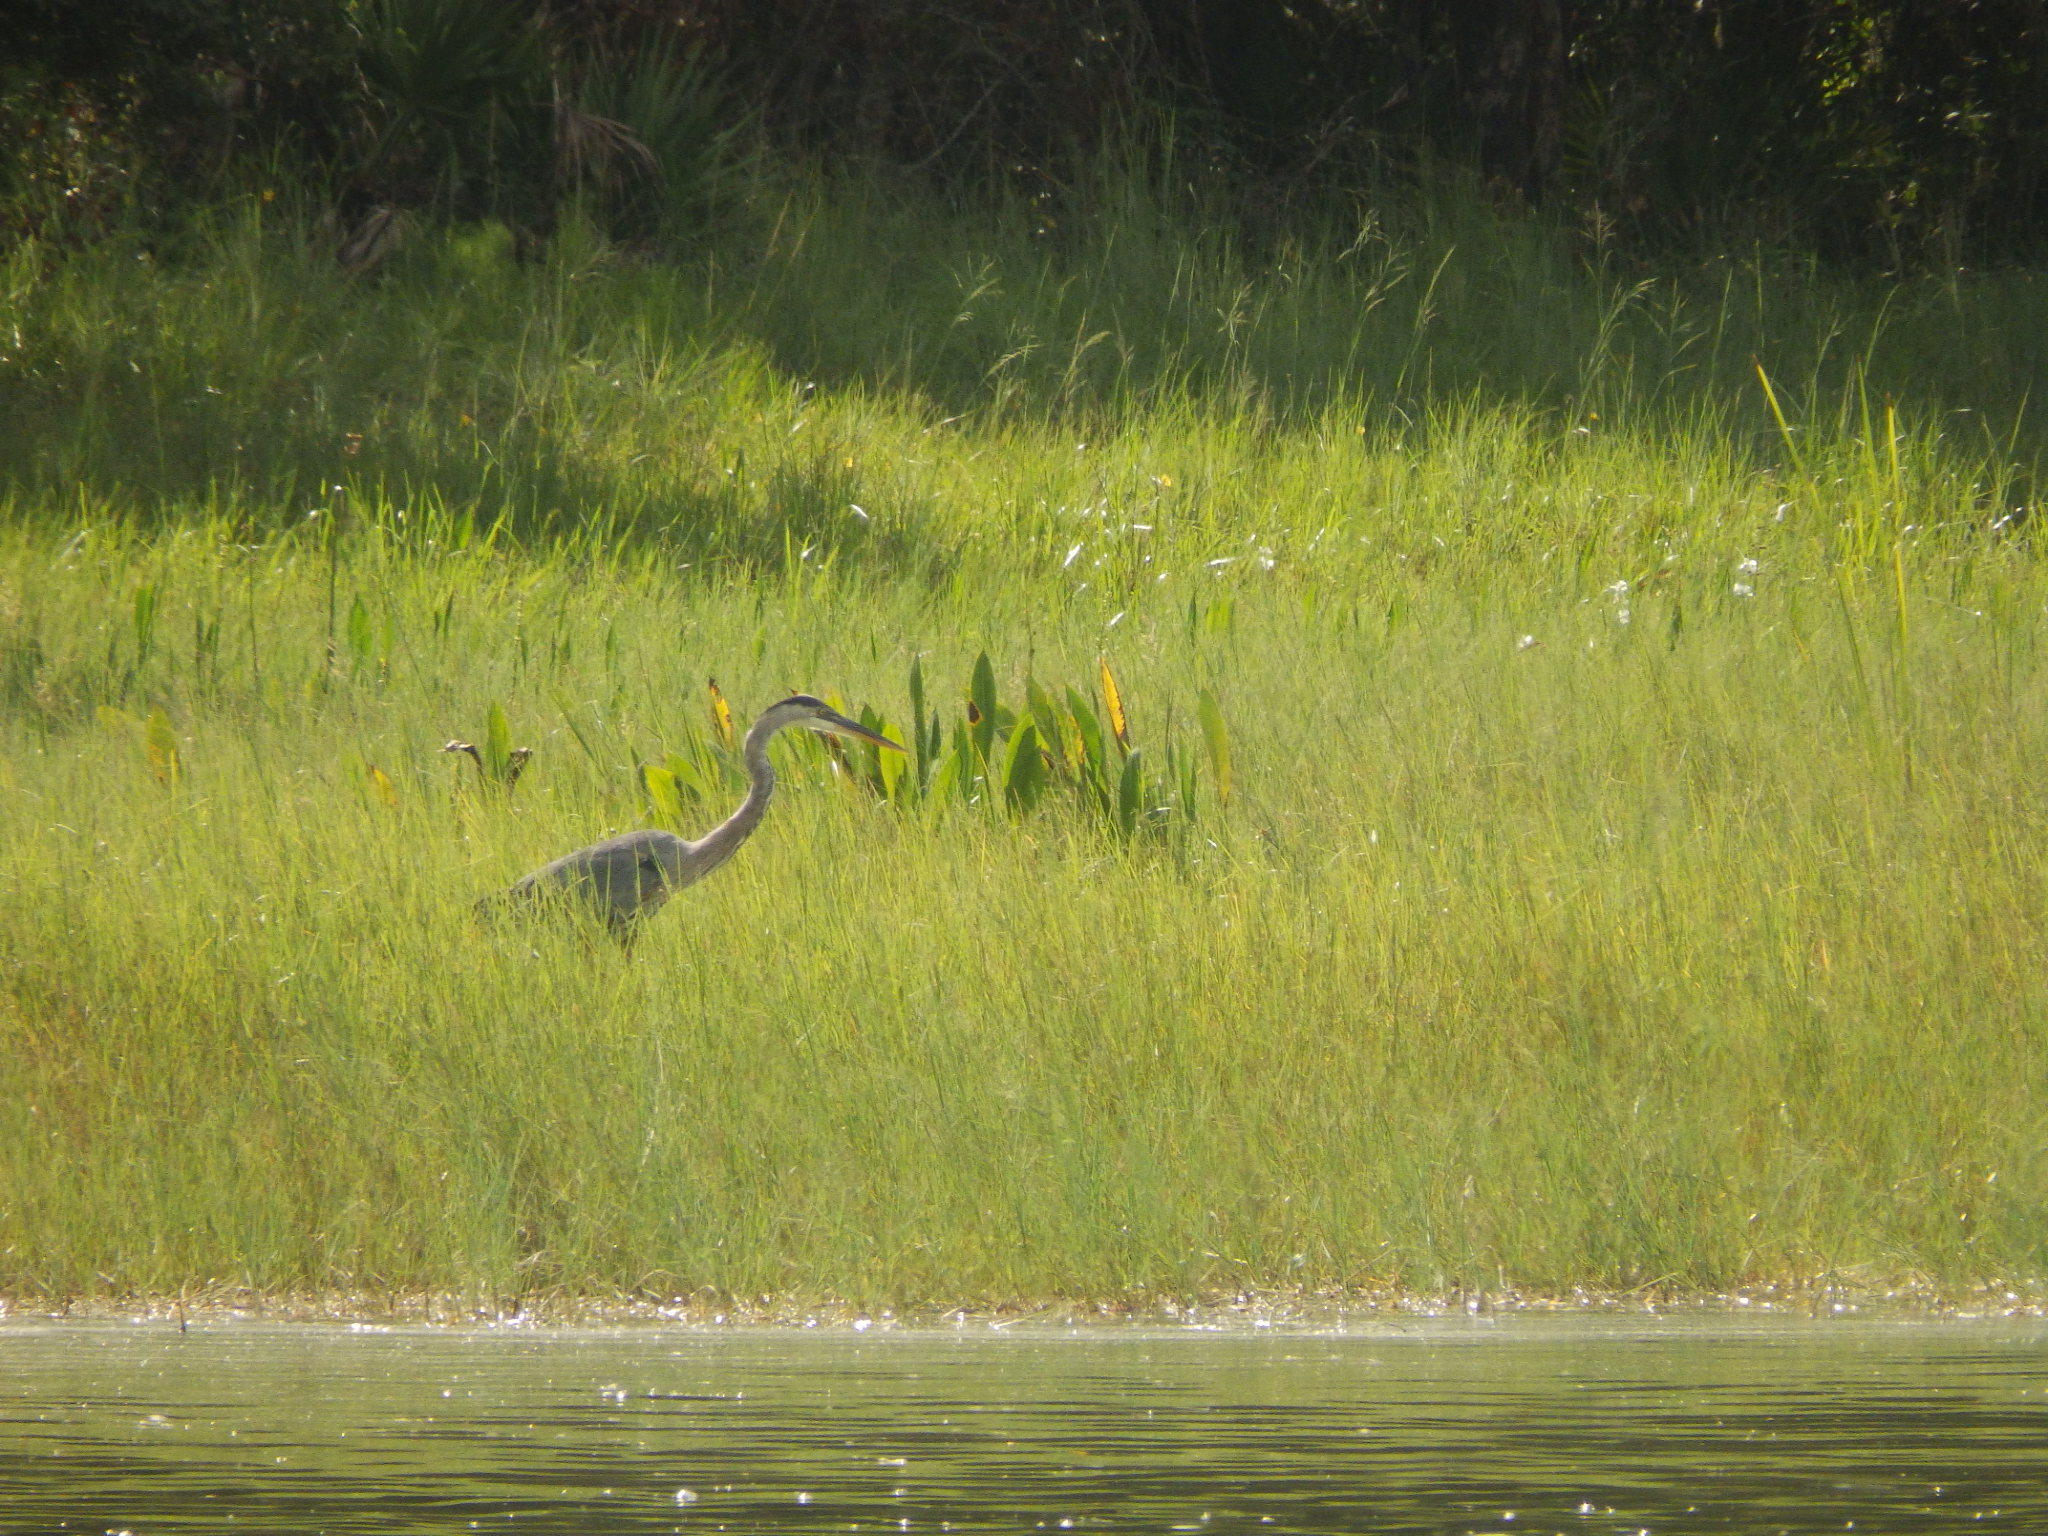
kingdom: Animalia
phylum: Chordata
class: Aves
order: Pelecaniformes
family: Ardeidae
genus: Ardea
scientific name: Ardea herodias
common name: Great blue heron
